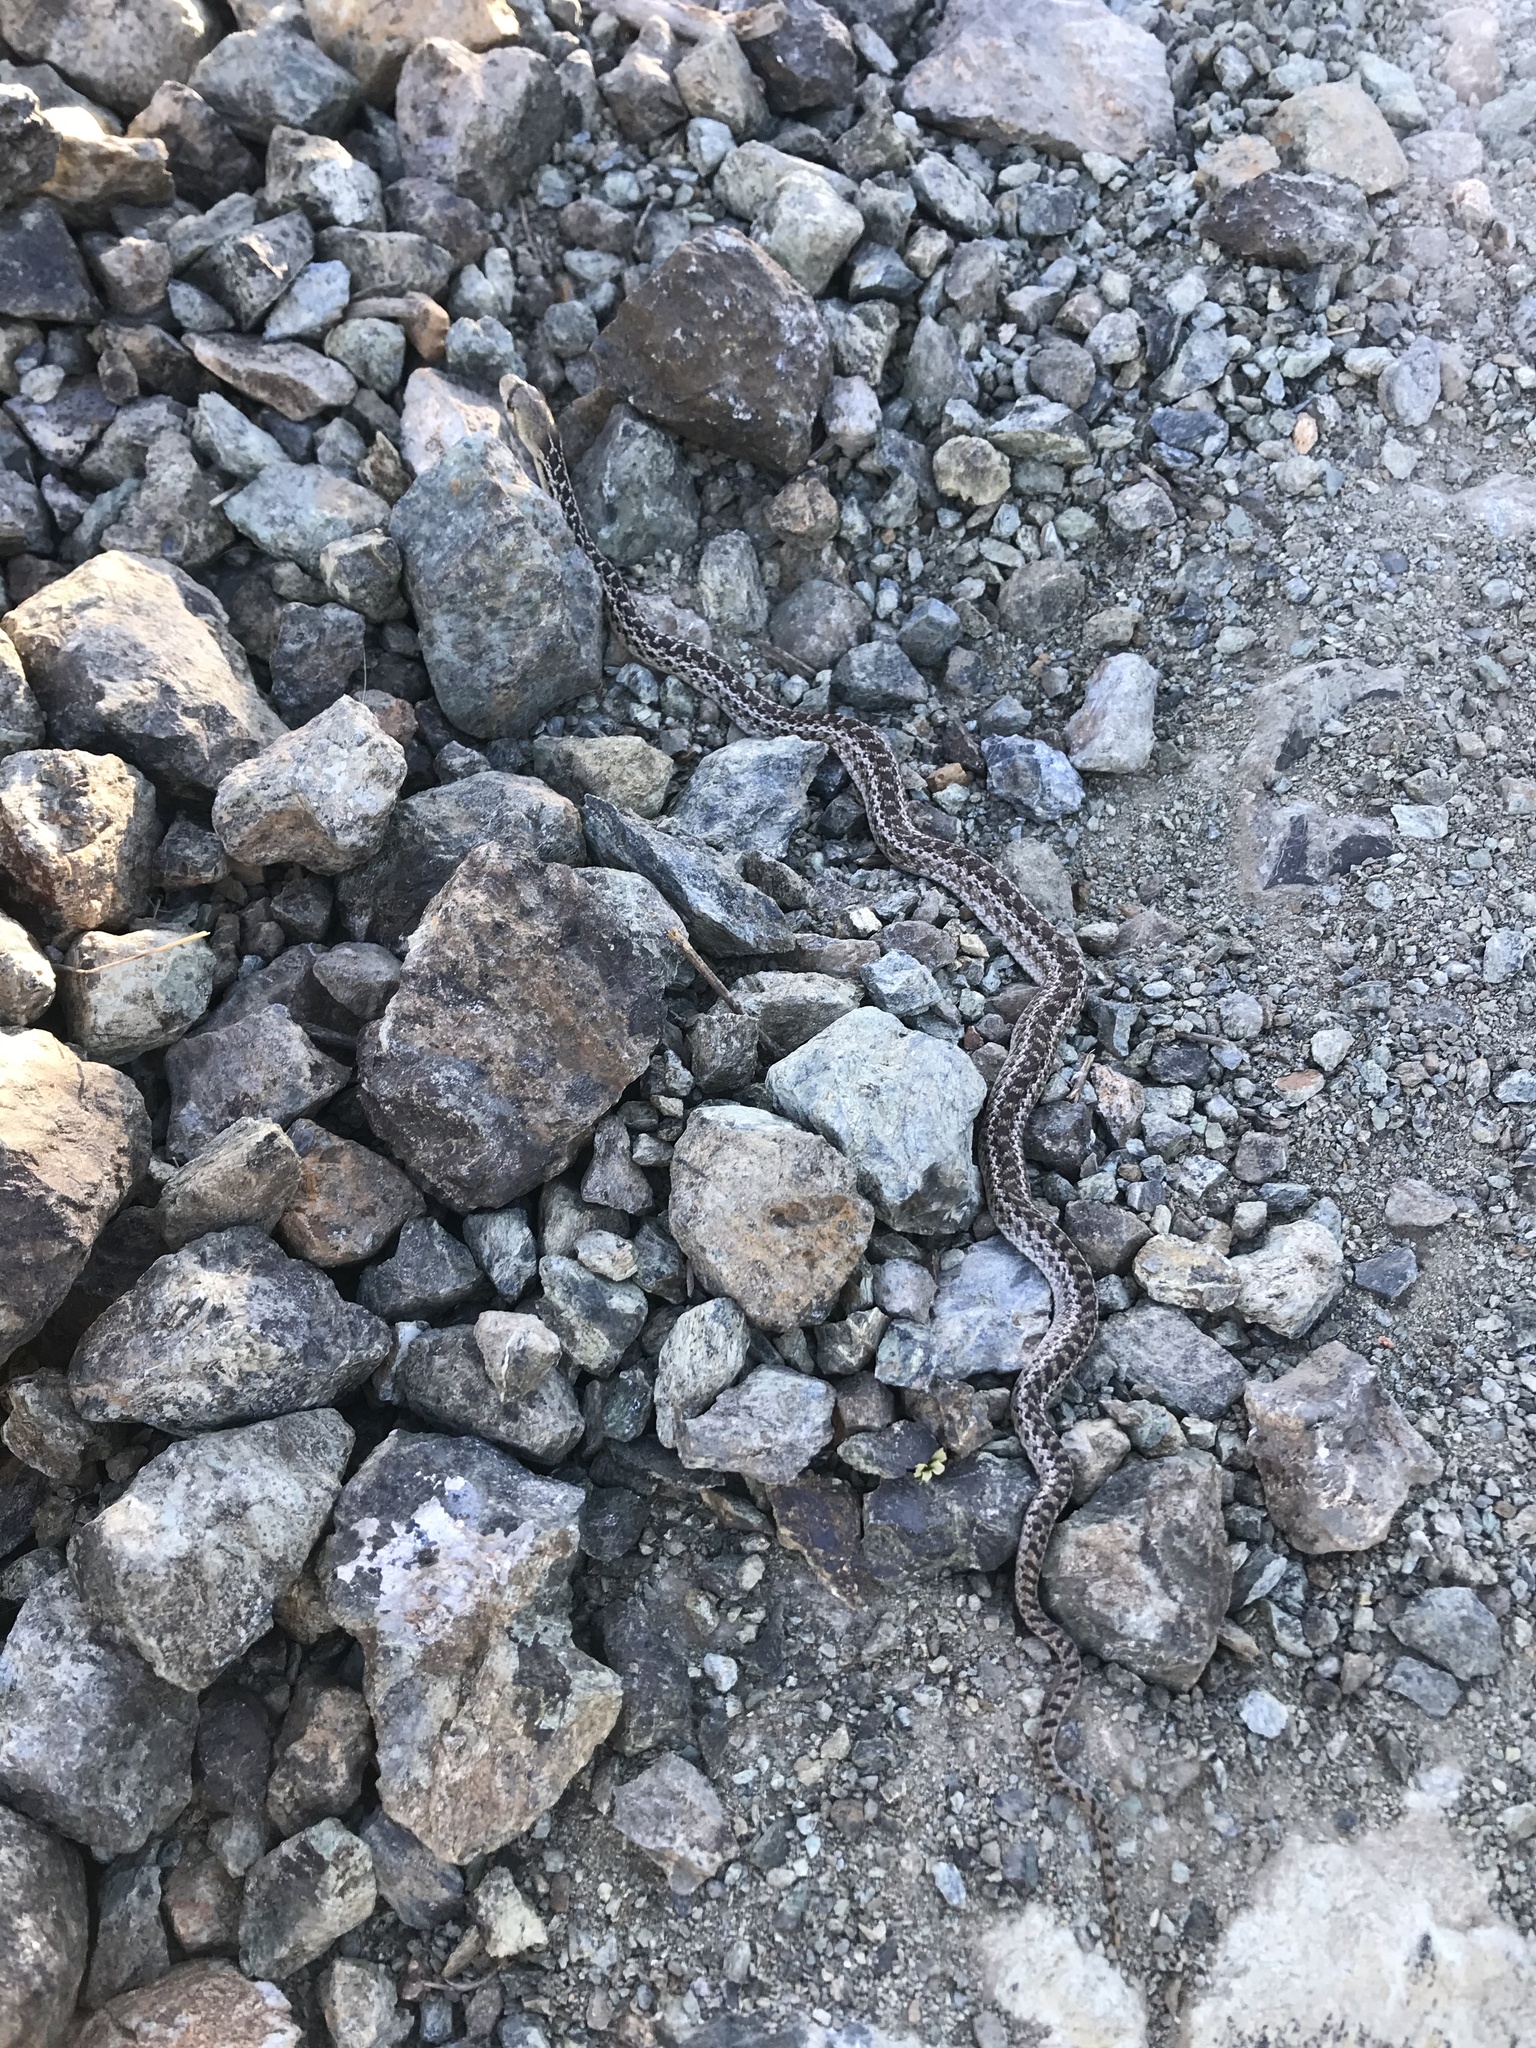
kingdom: Animalia
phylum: Chordata
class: Squamata
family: Colubridae
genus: Pituophis
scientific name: Pituophis catenifer
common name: Gopher snake
